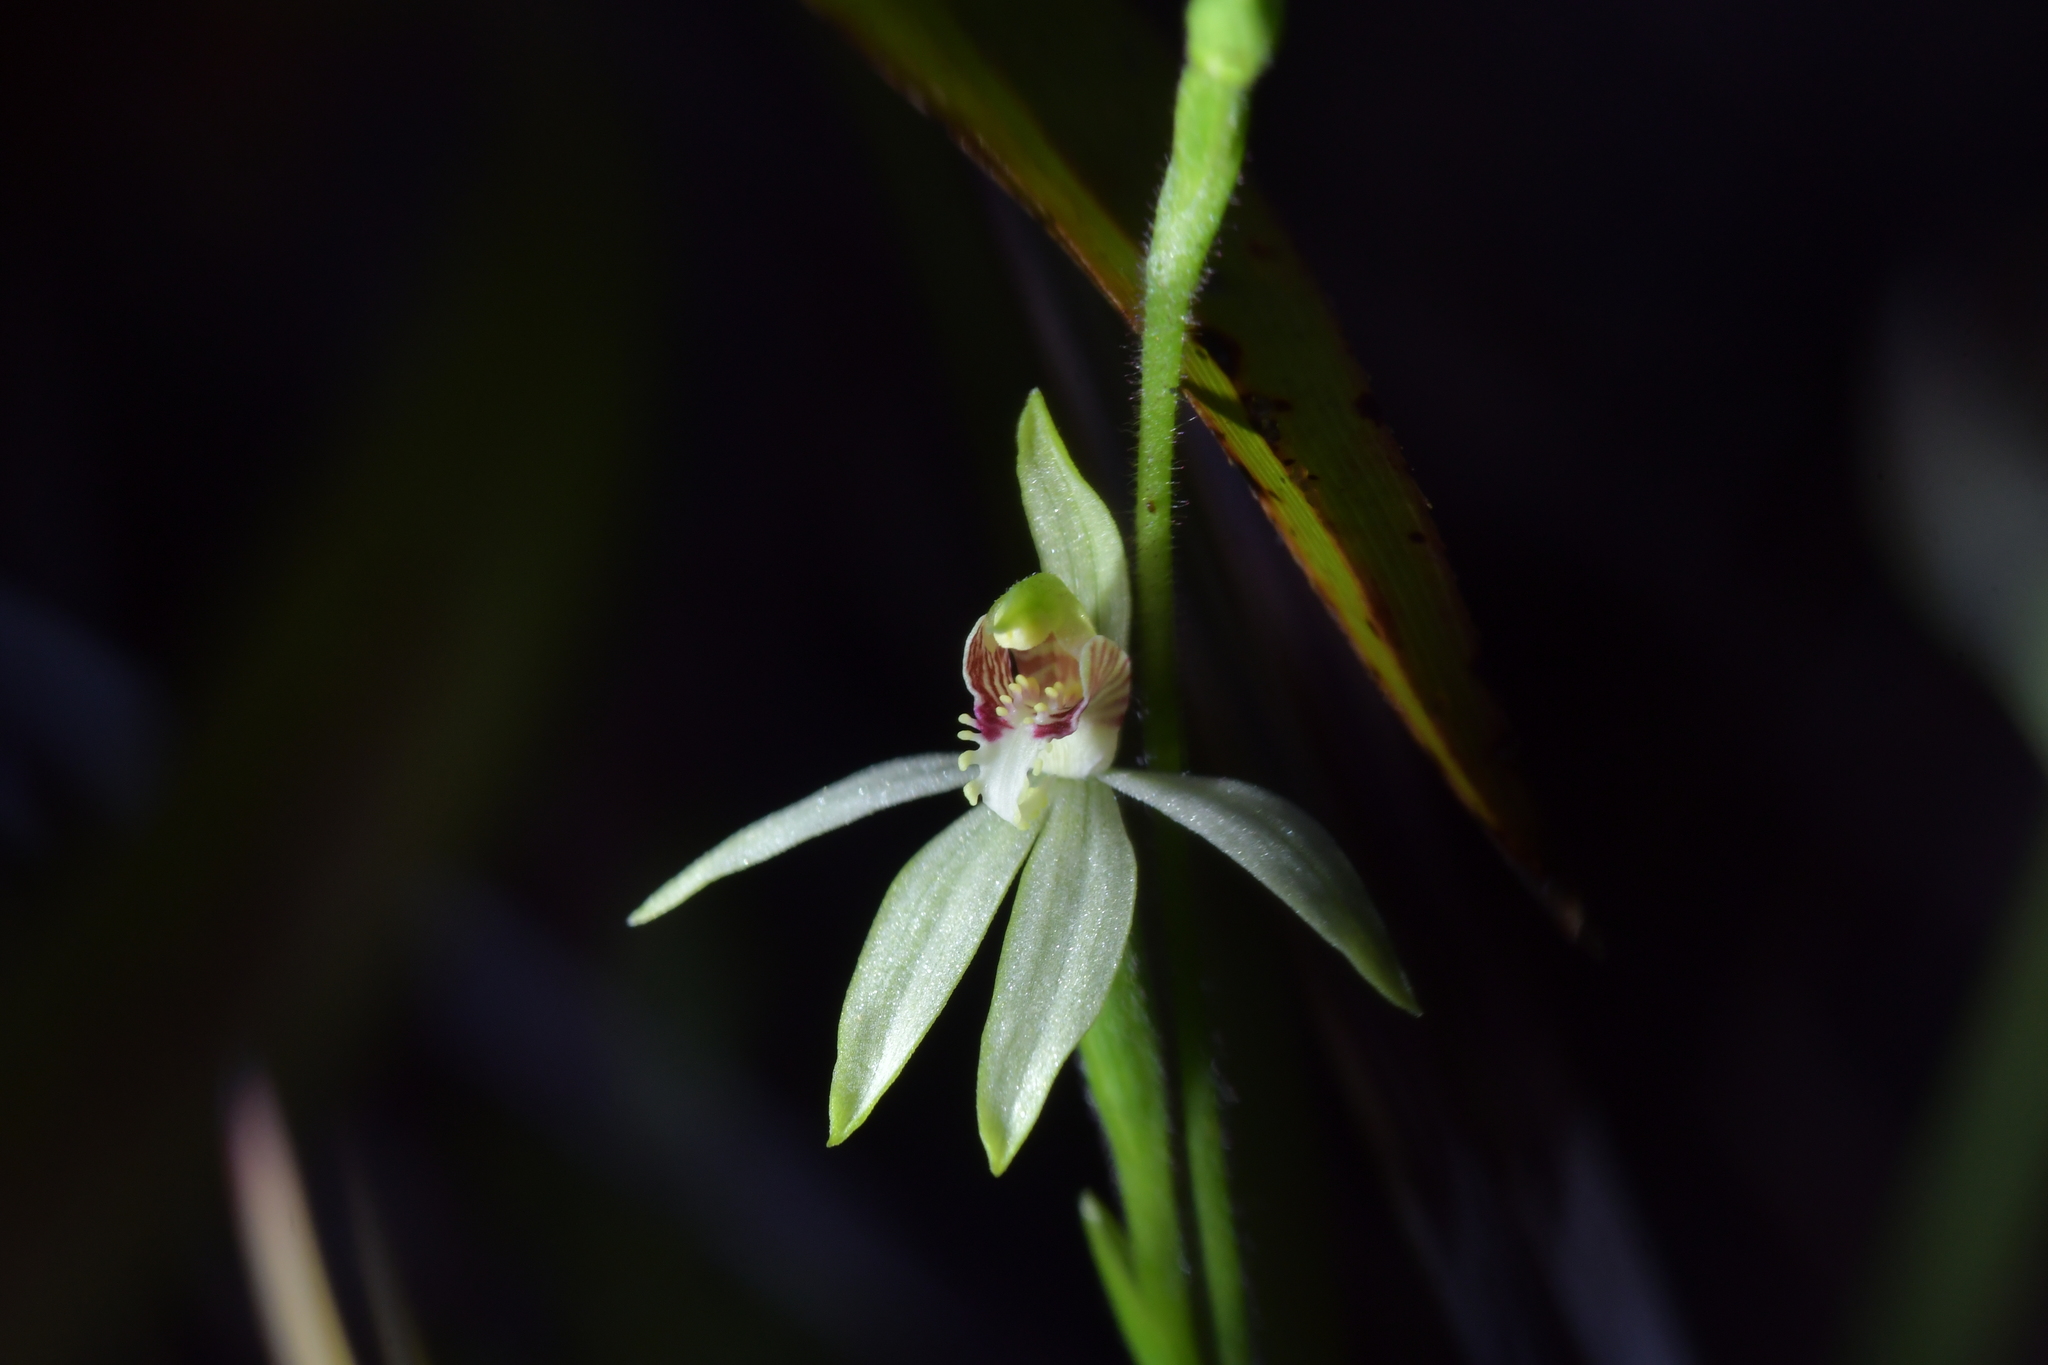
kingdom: Plantae
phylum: Tracheophyta
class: Liliopsida
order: Asparagales
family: Orchidaceae
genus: Caladenia
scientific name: Caladenia chlorostyla
